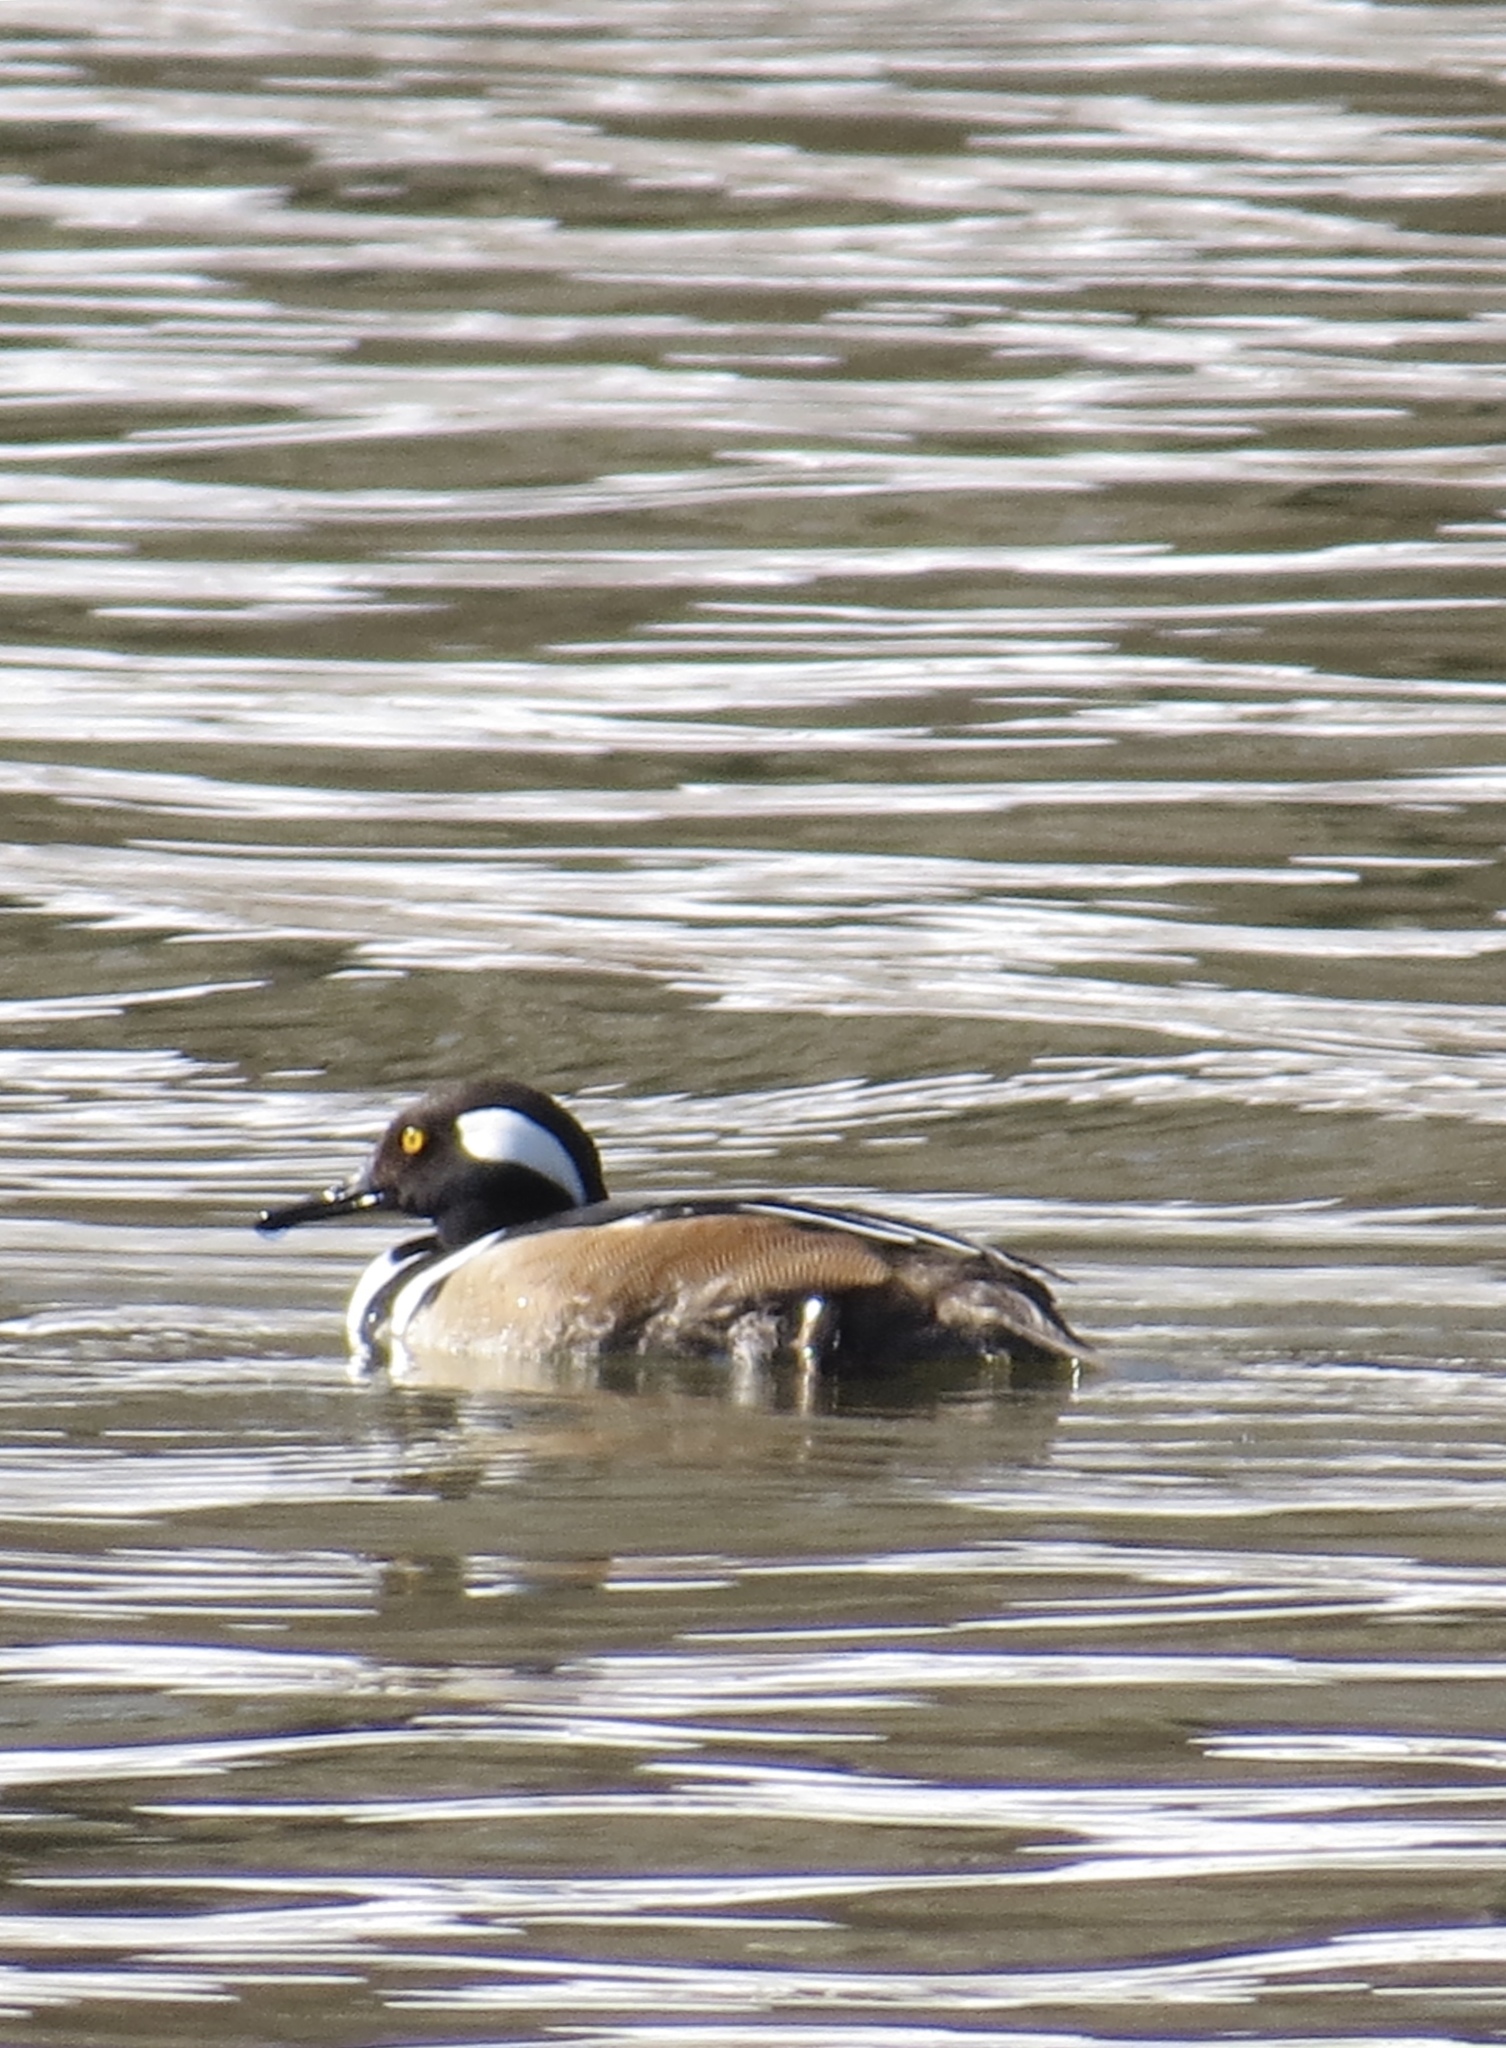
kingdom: Animalia
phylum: Chordata
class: Aves
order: Anseriformes
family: Anatidae
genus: Lophodytes
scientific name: Lophodytes cucullatus
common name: Hooded merganser
